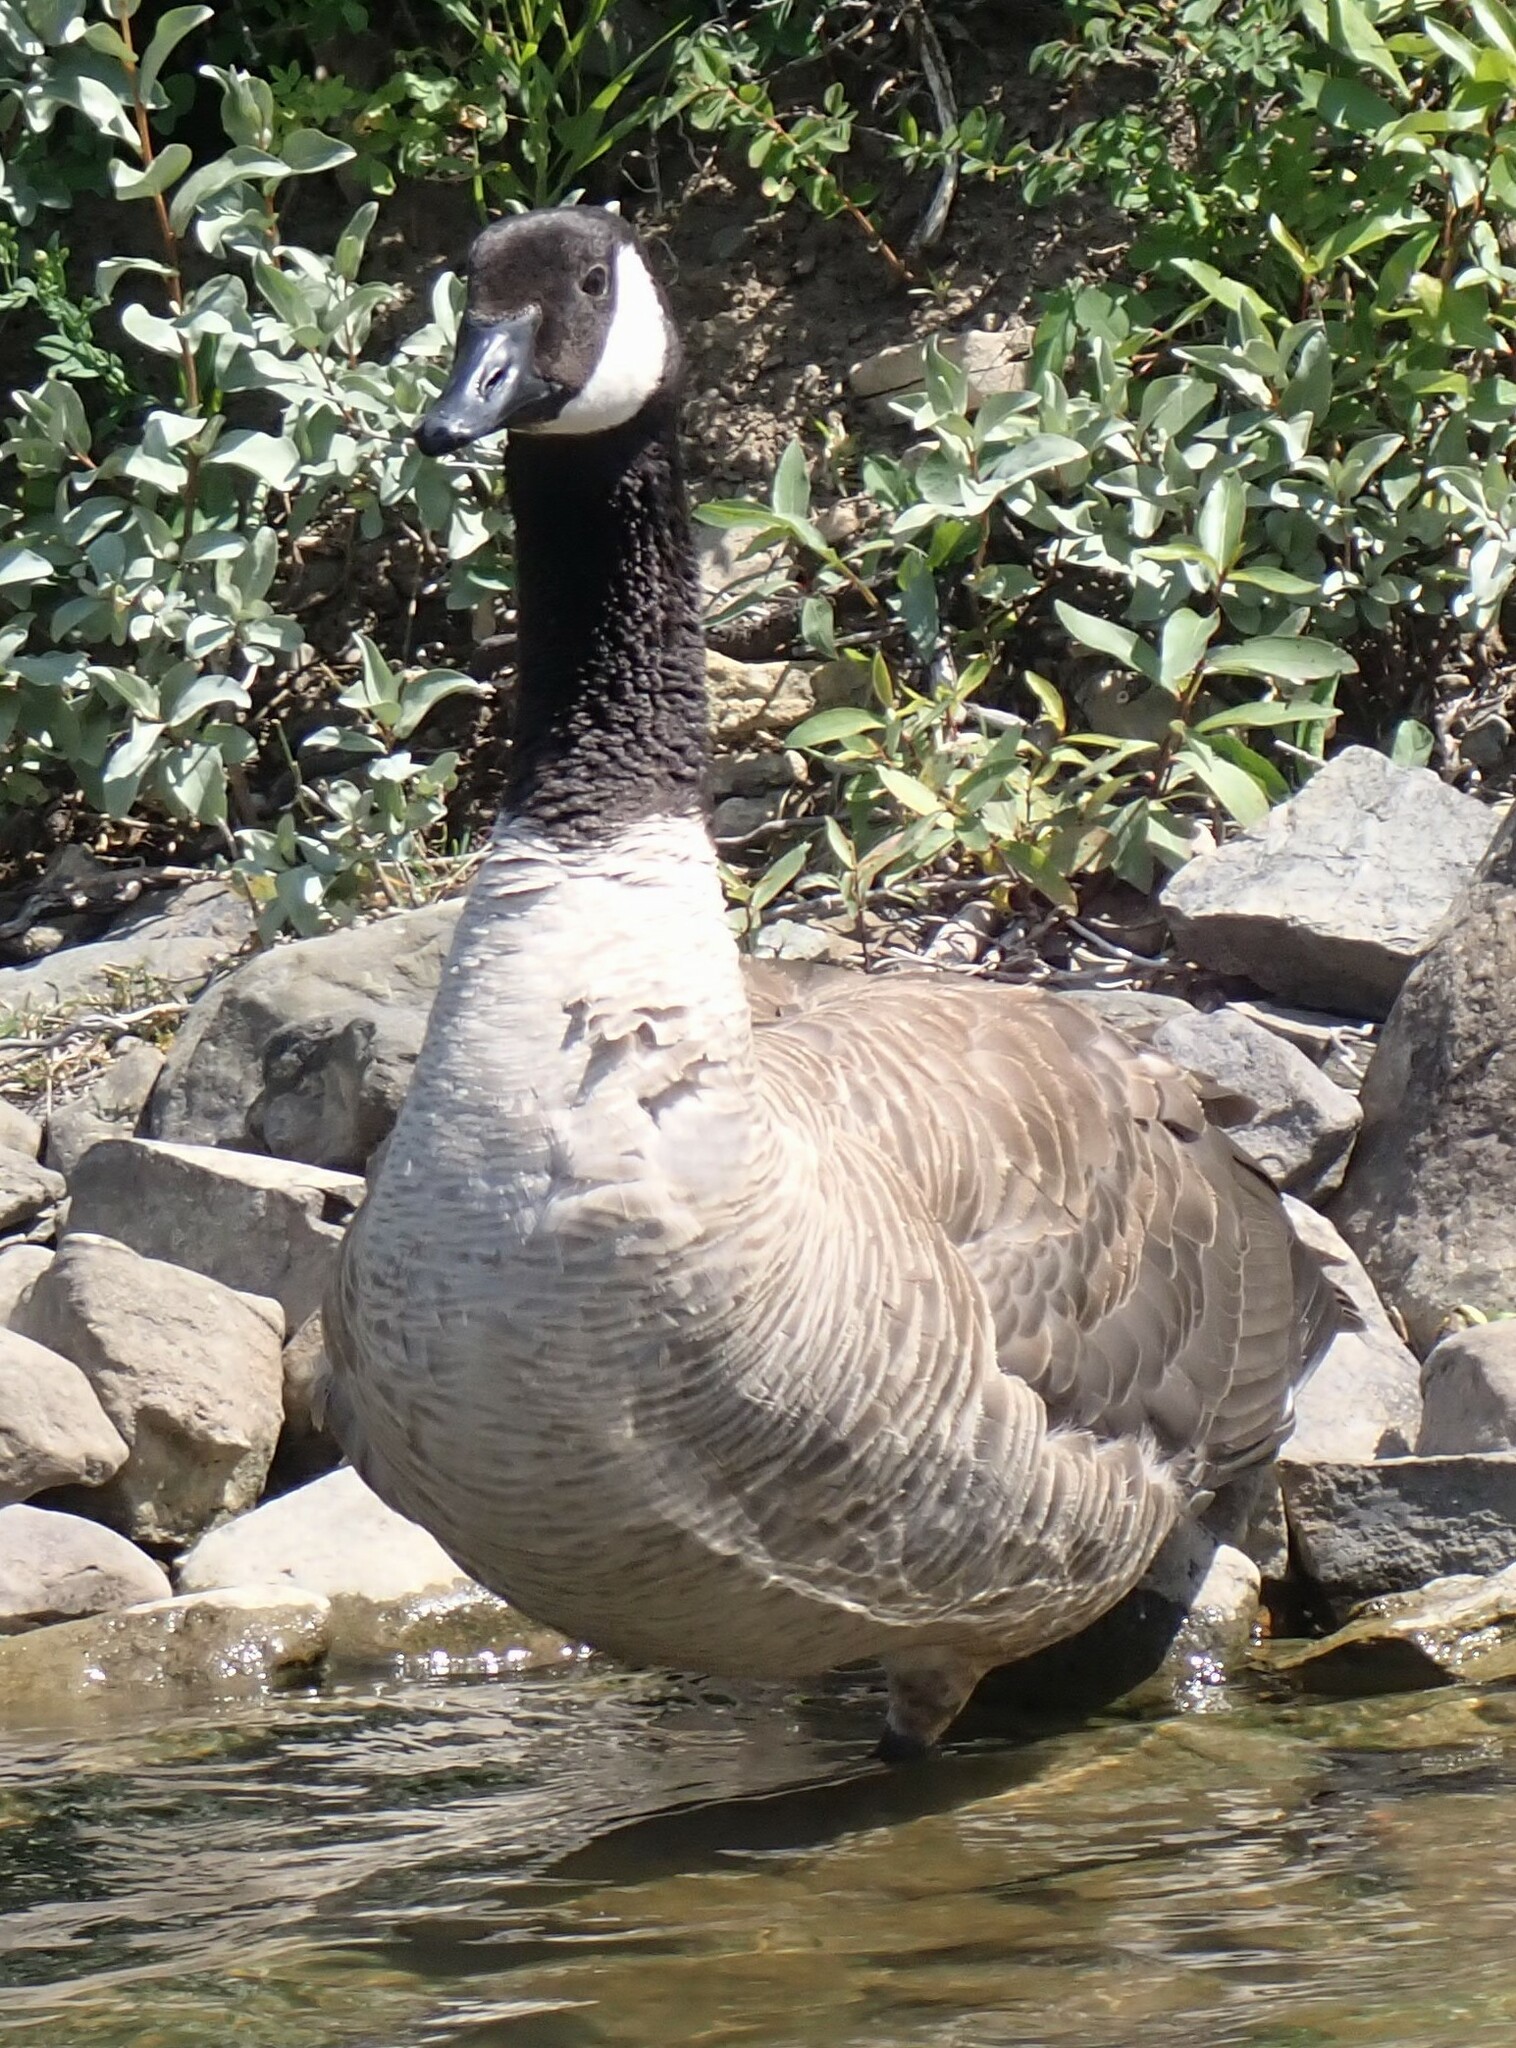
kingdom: Animalia
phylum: Chordata
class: Aves
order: Anseriformes
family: Anatidae
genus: Branta
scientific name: Branta canadensis
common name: Canada goose
